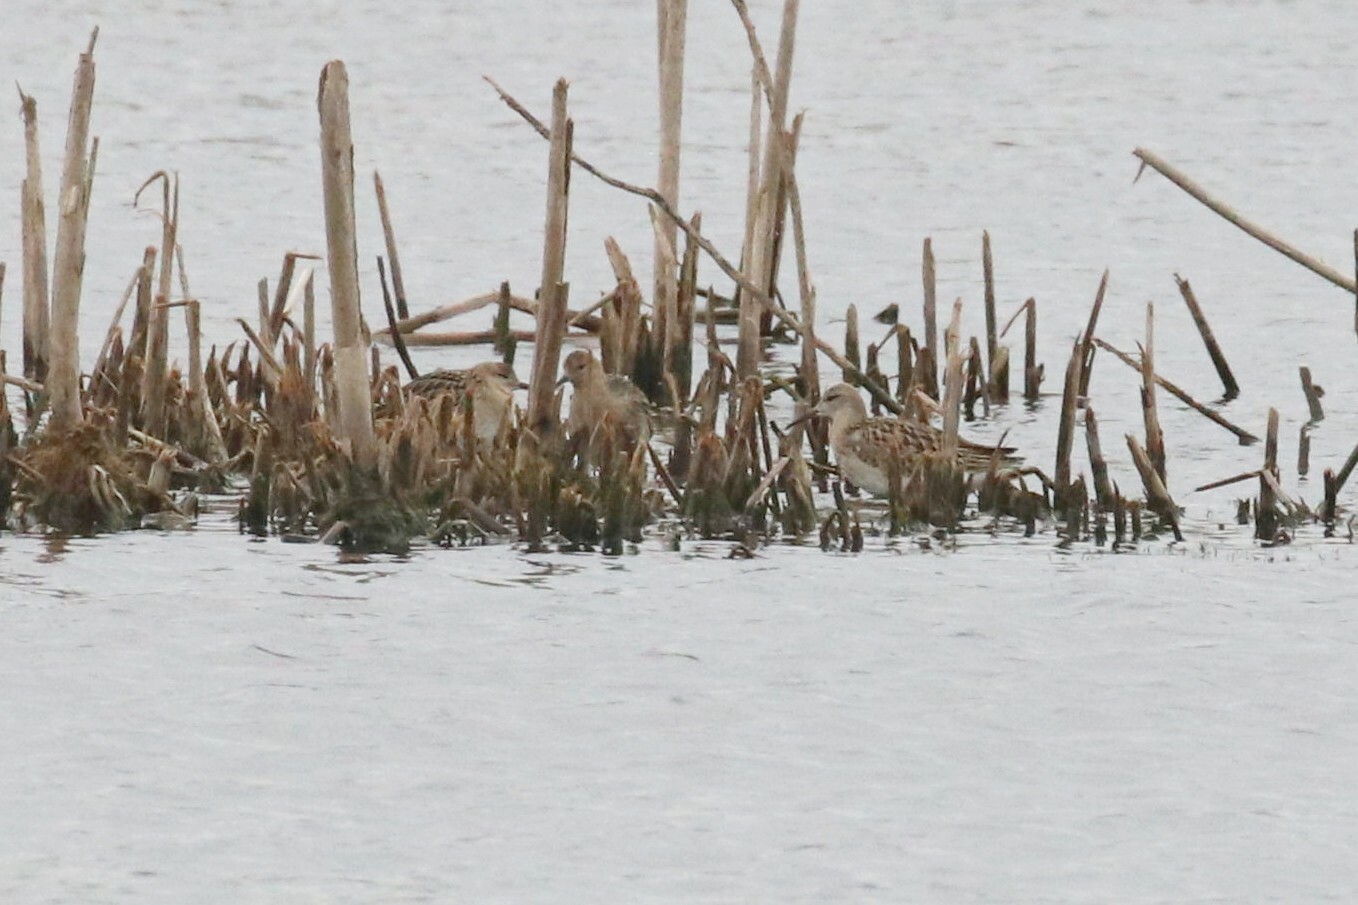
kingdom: Animalia
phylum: Chordata
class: Aves
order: Charadriiformes
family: Scolopacidae
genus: Calidris
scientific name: Calidris pugnax
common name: Ruff
